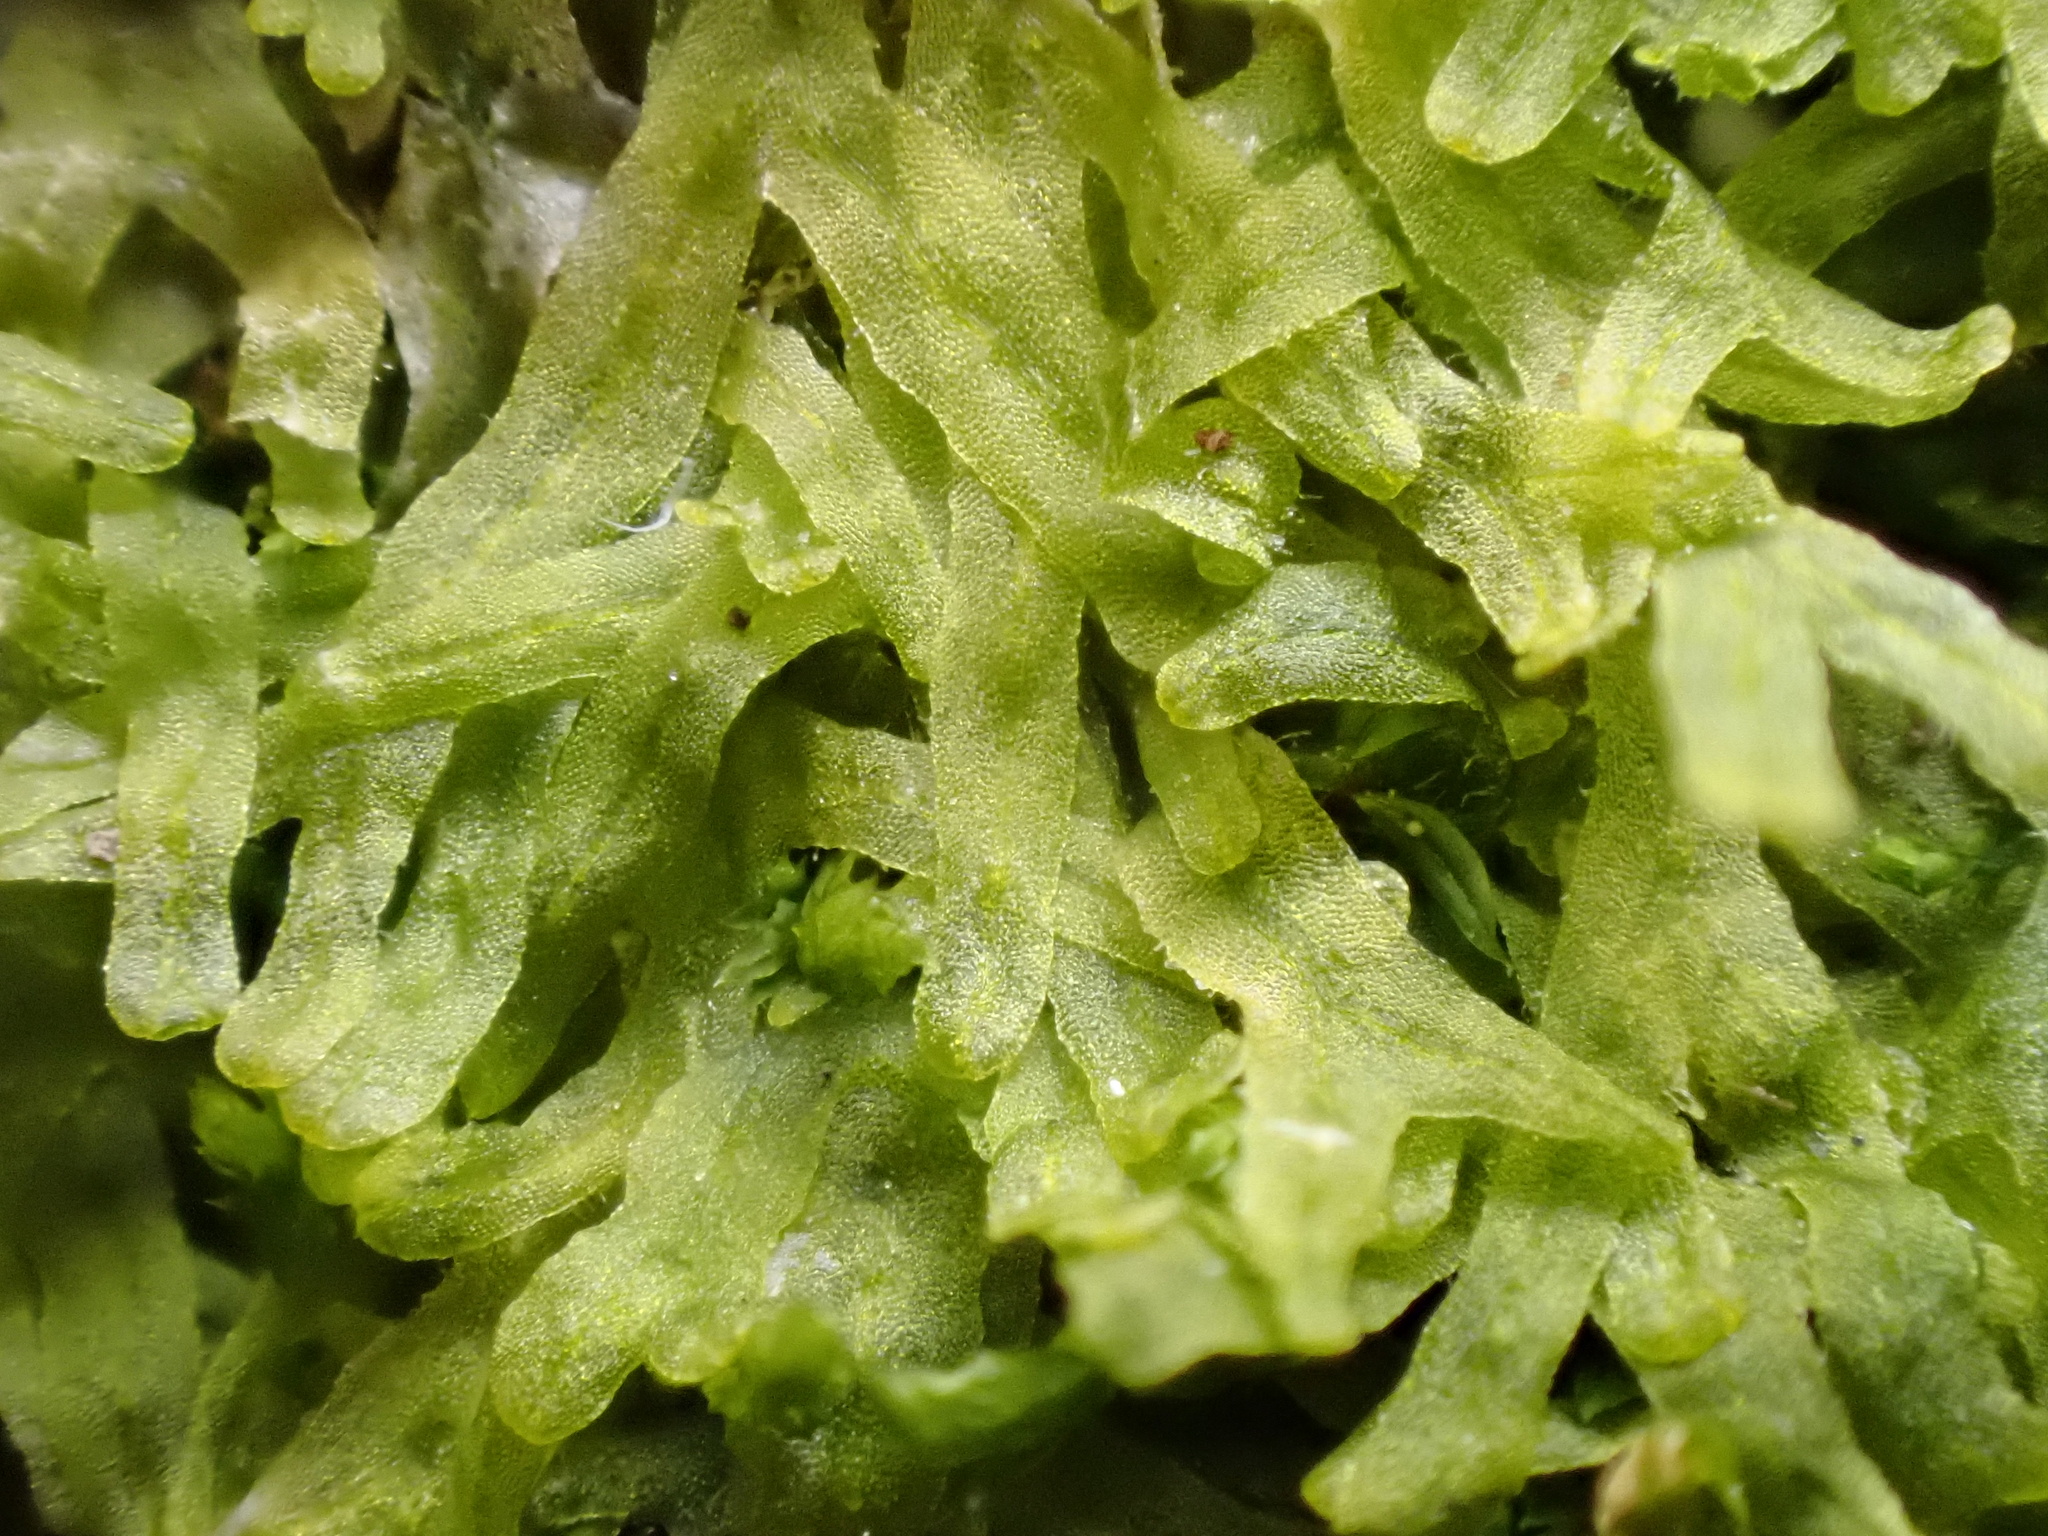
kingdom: Plantae
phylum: Marchantiophyta
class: Jungermanniopsida
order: Metzgeriales
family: Metzgeriaceae
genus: Metzgeria
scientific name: Metzgeria furcata
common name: Forked veilwort
